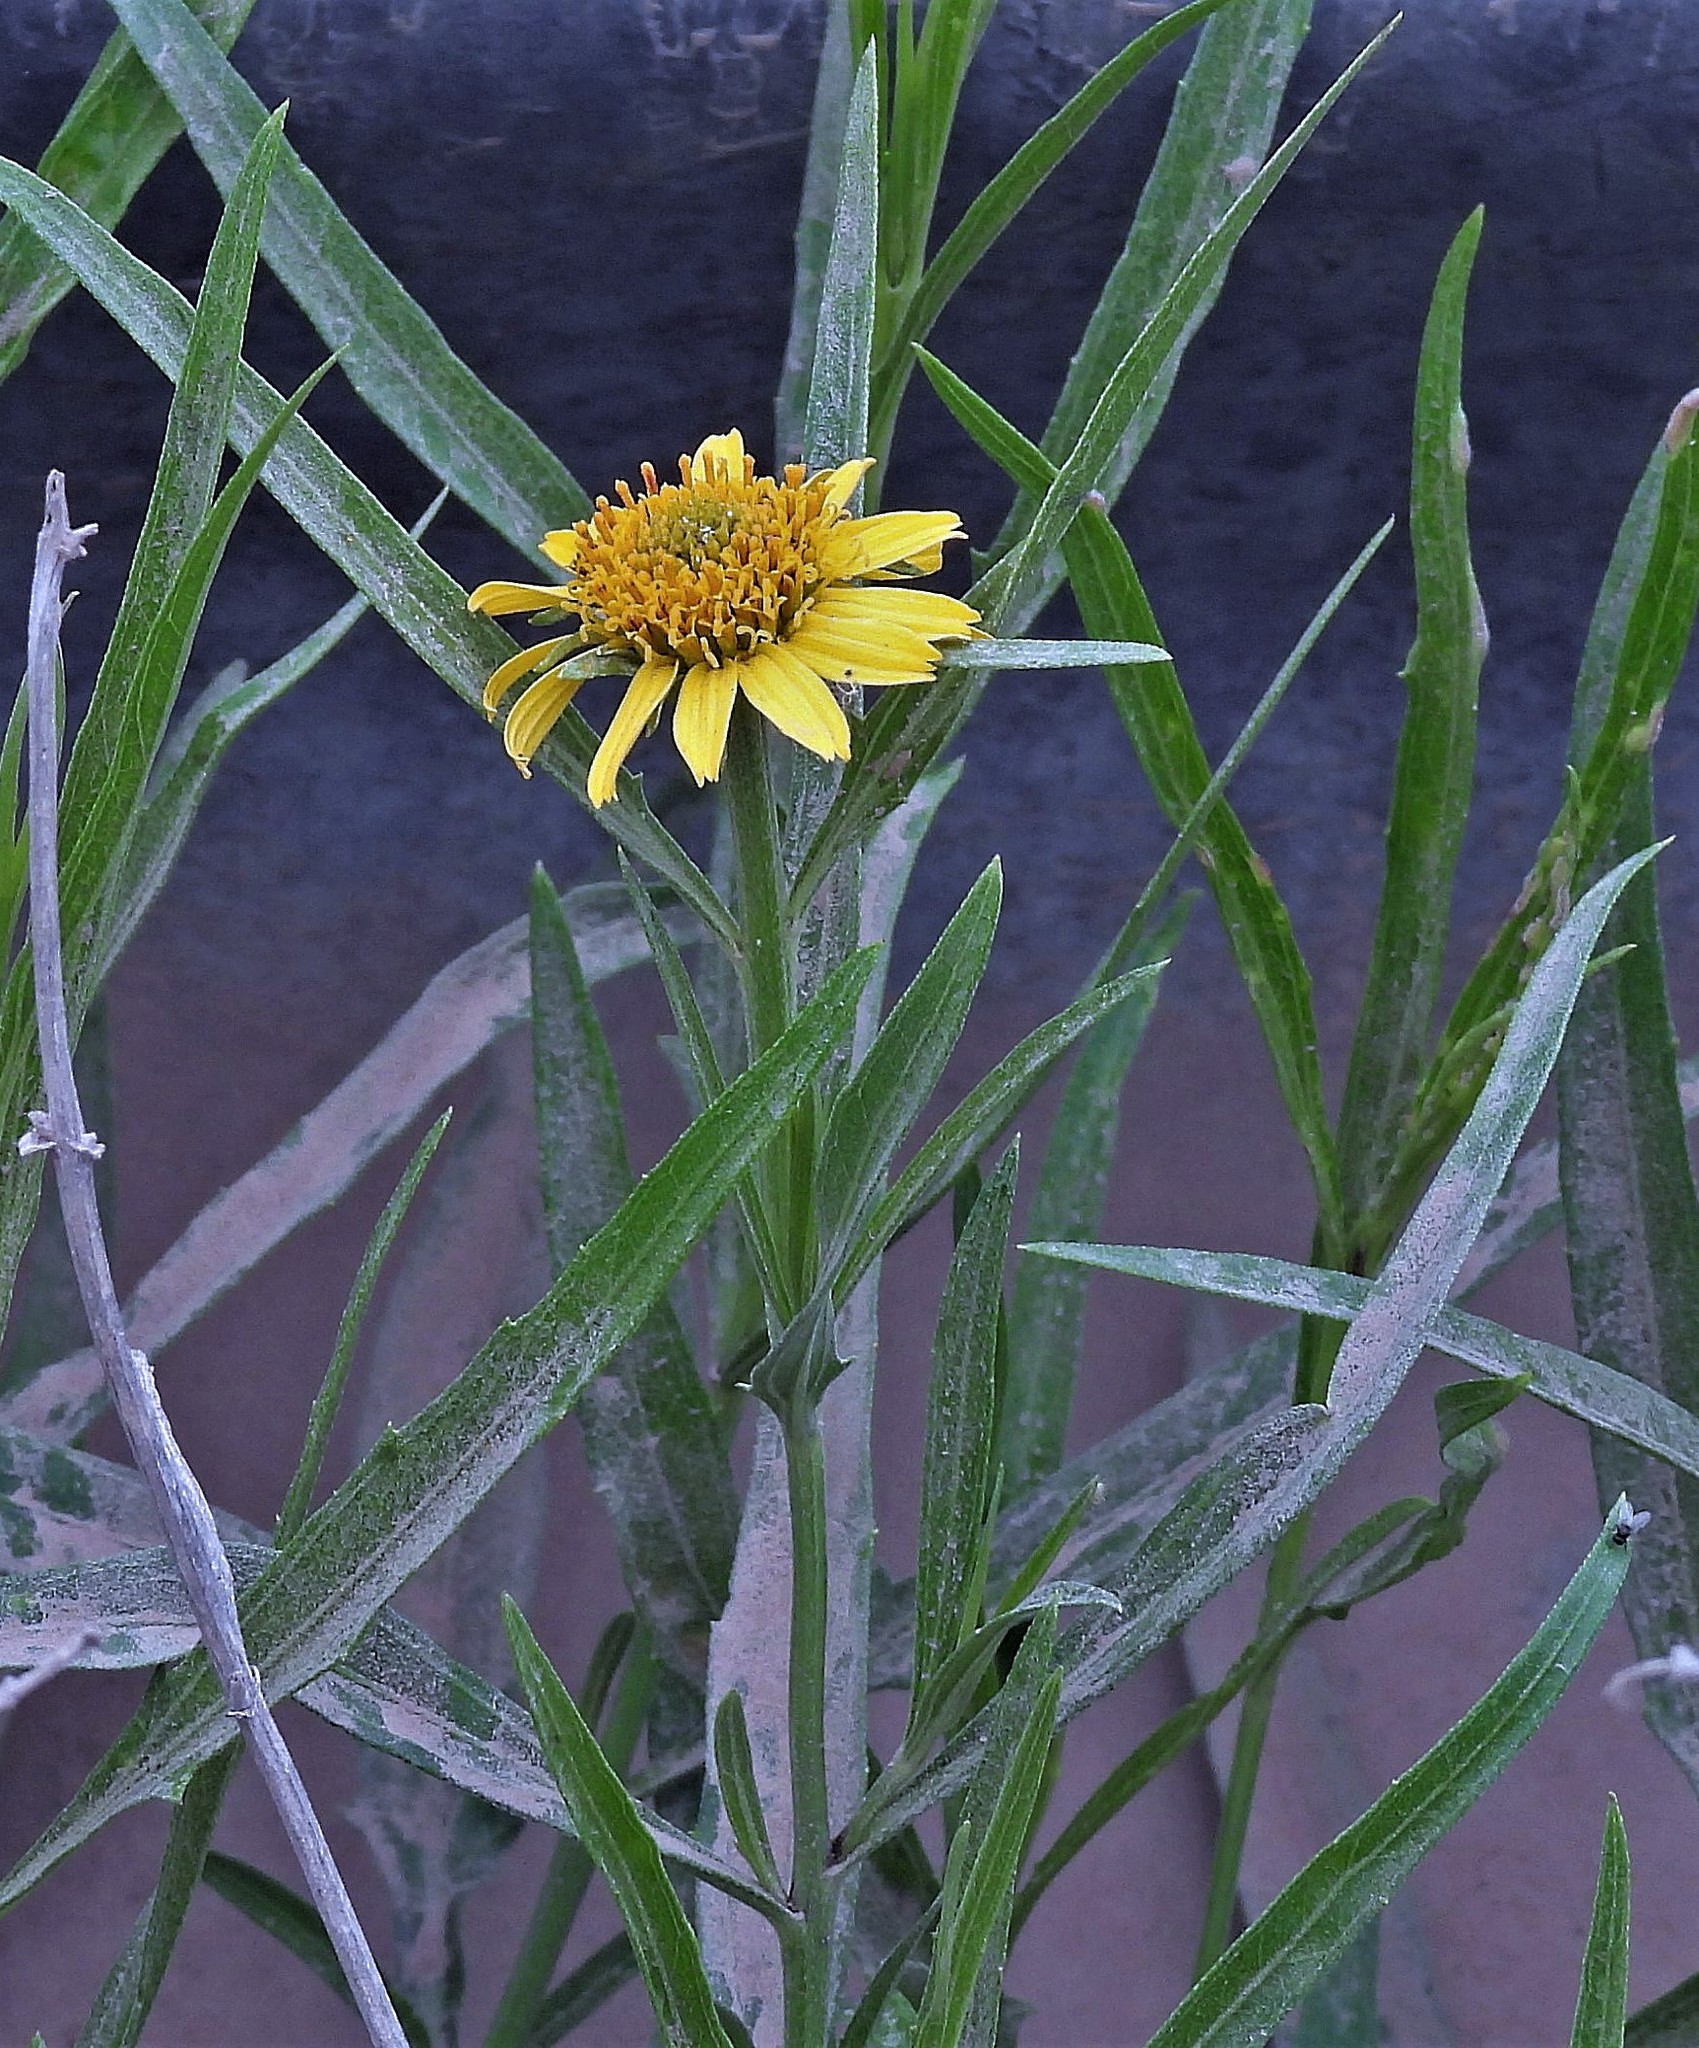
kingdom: Plantae
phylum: Tracheophyta
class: Magnoliopsida
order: Asterales
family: Asteraceae
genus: Pascalia
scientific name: Pascalia glauca
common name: Beach creeping oxeye
